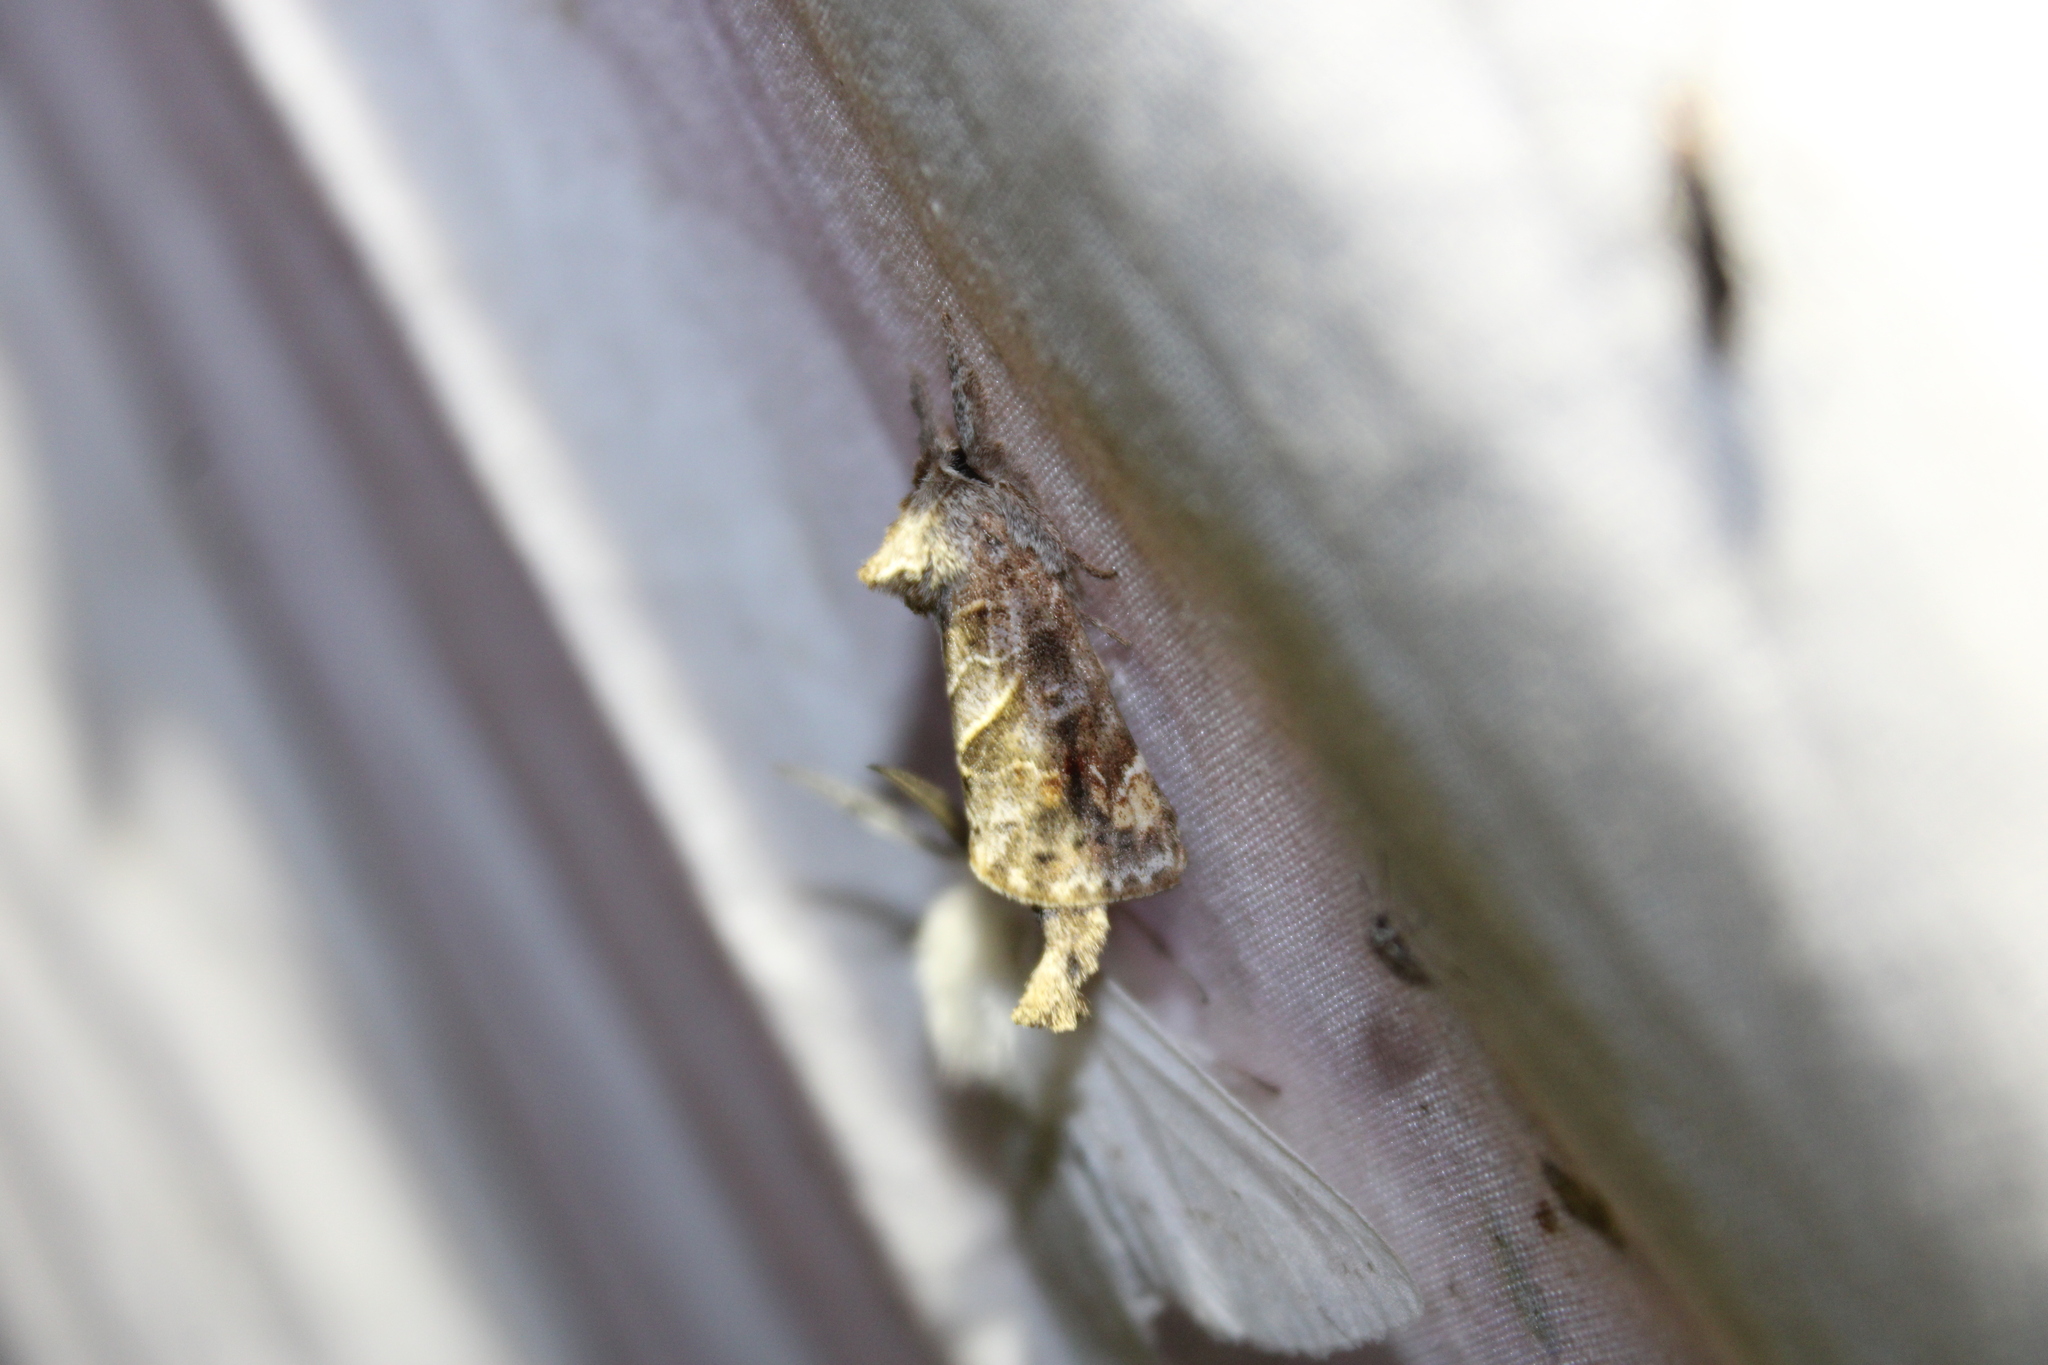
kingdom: Animalia
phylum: Arthropoda
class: Insecta
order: Lepidoptera
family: Notodontidae
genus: Clostera
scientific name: Clostera strigosa
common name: Striped chocolate-tip moth
